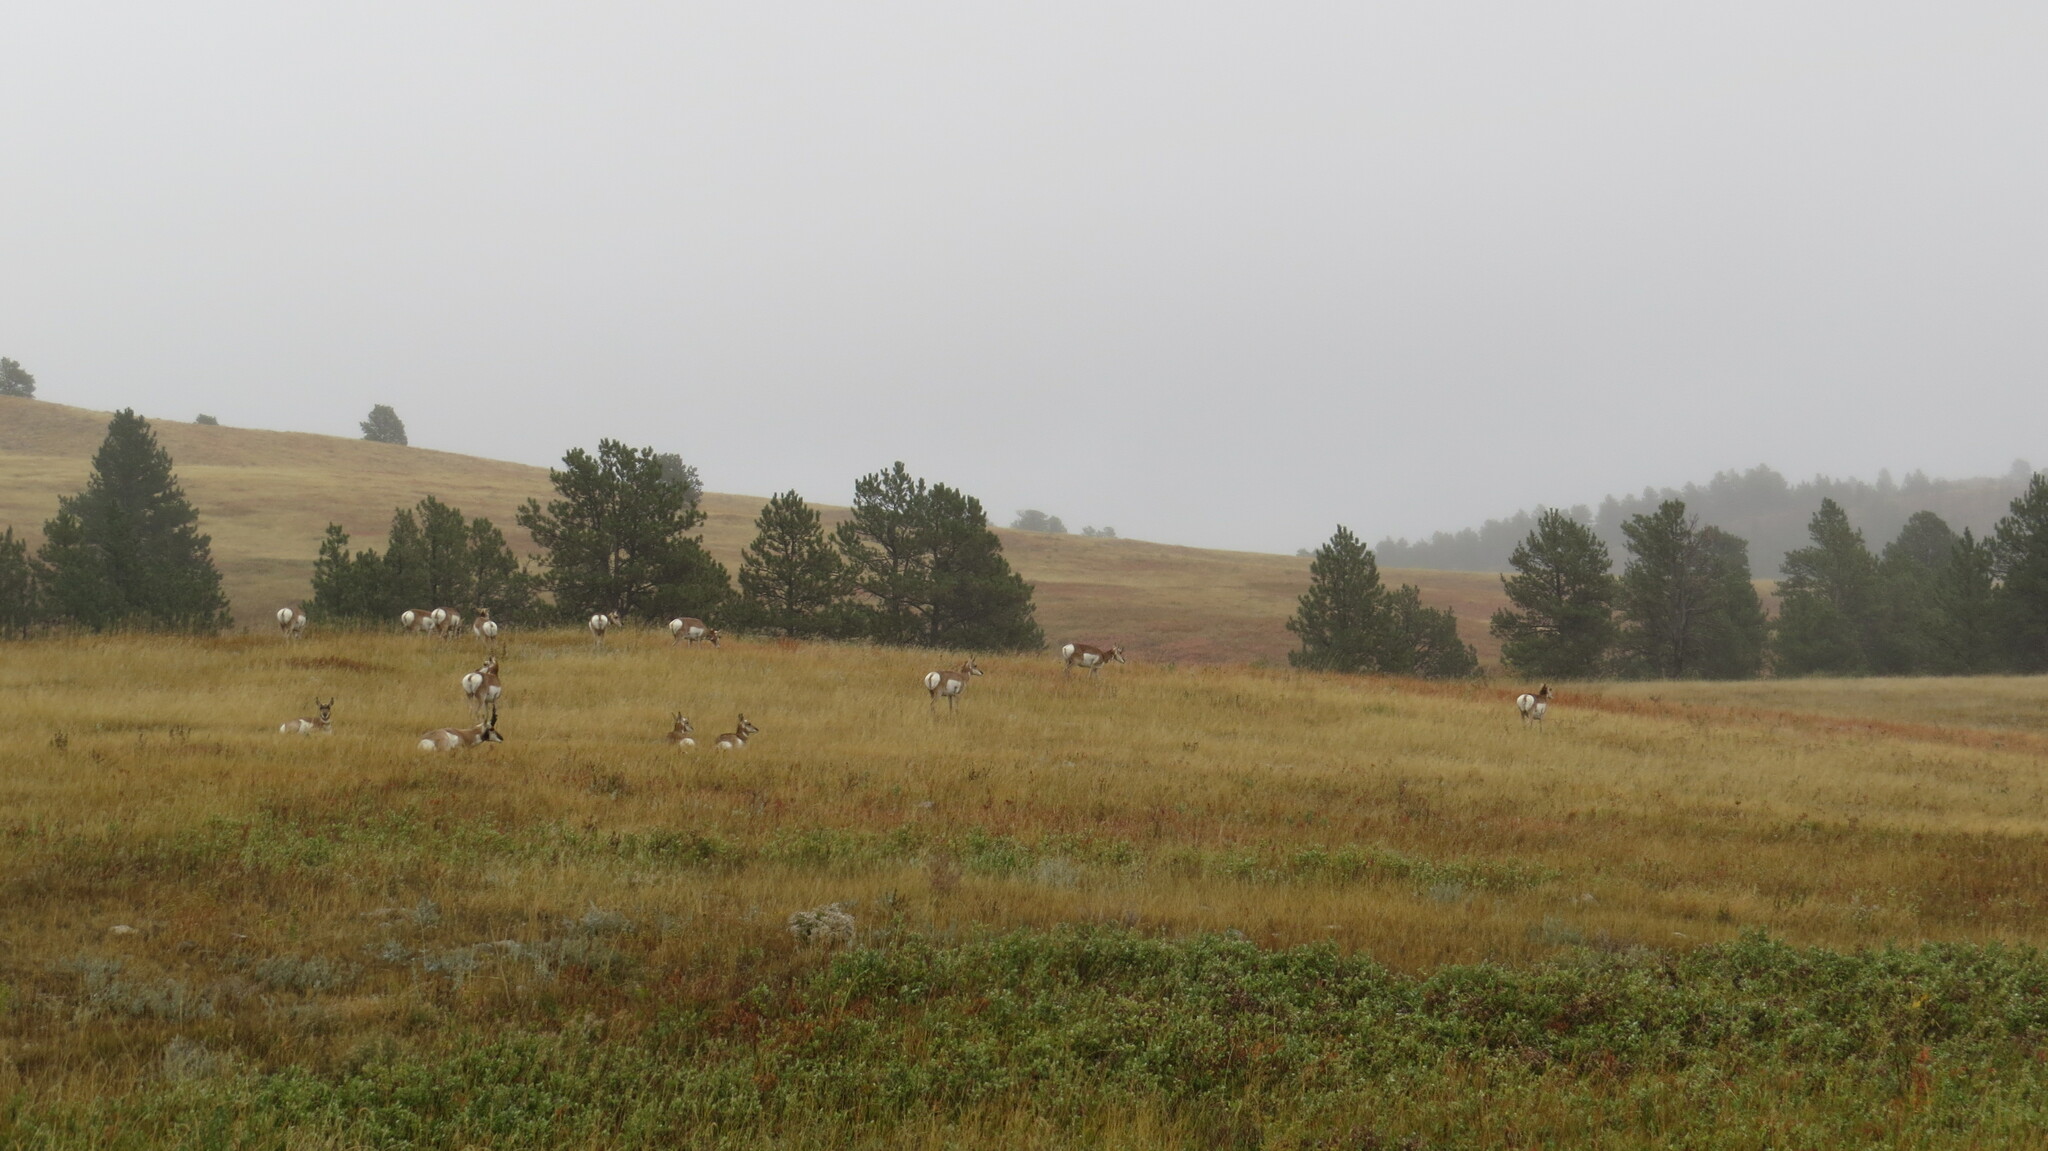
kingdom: Animalia
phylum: Chordata
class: Mammalia
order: Artiodactyla
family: Antilocapridae
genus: Antilocapra
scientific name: Antilocapra americana
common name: Pronghorn
